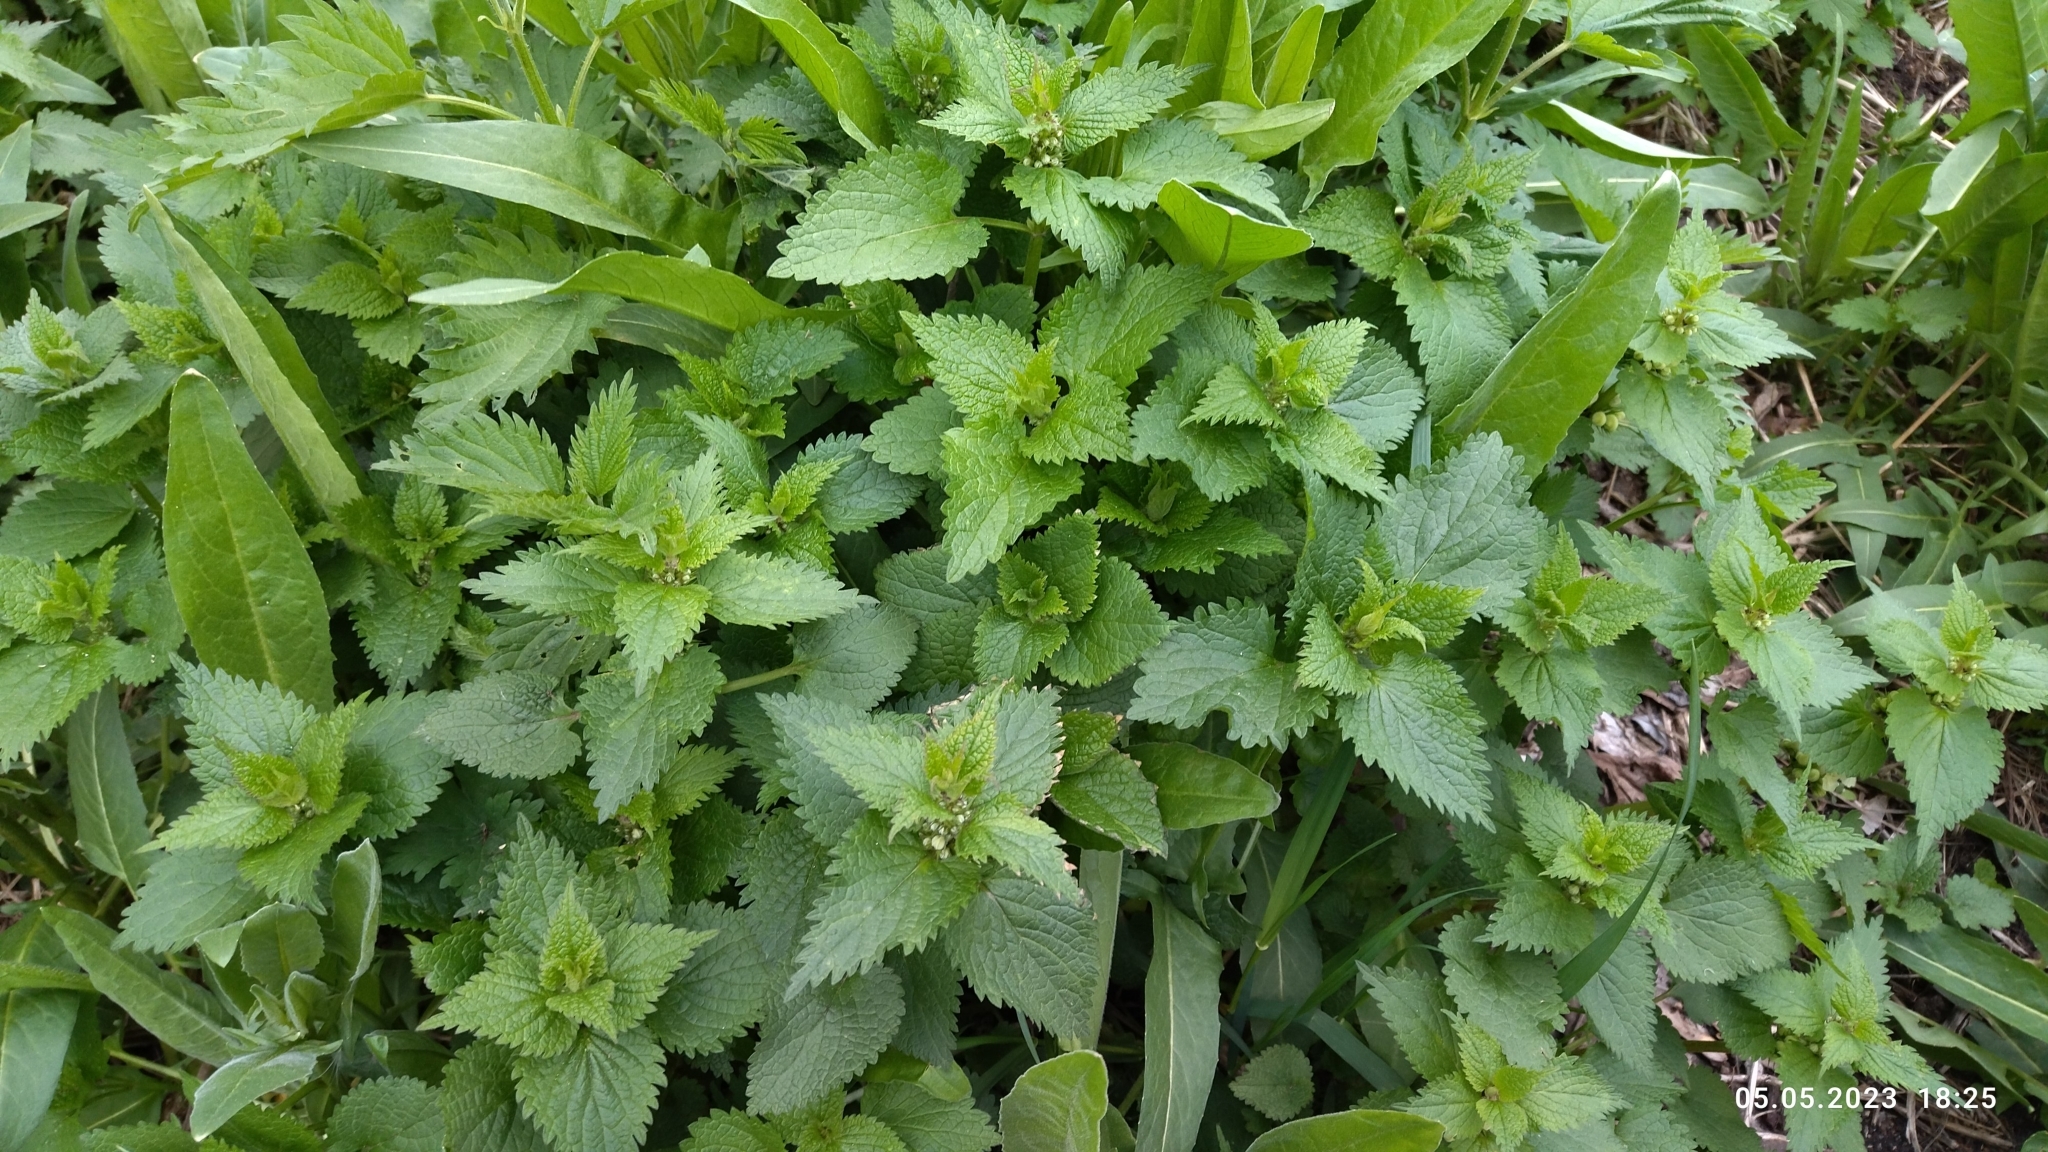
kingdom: Plantae
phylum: Tracheophyta
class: Magnoliopsida
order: Lamiales
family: Lamiaceae
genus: Lamium
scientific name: Lamium album
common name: White dead-nettle
